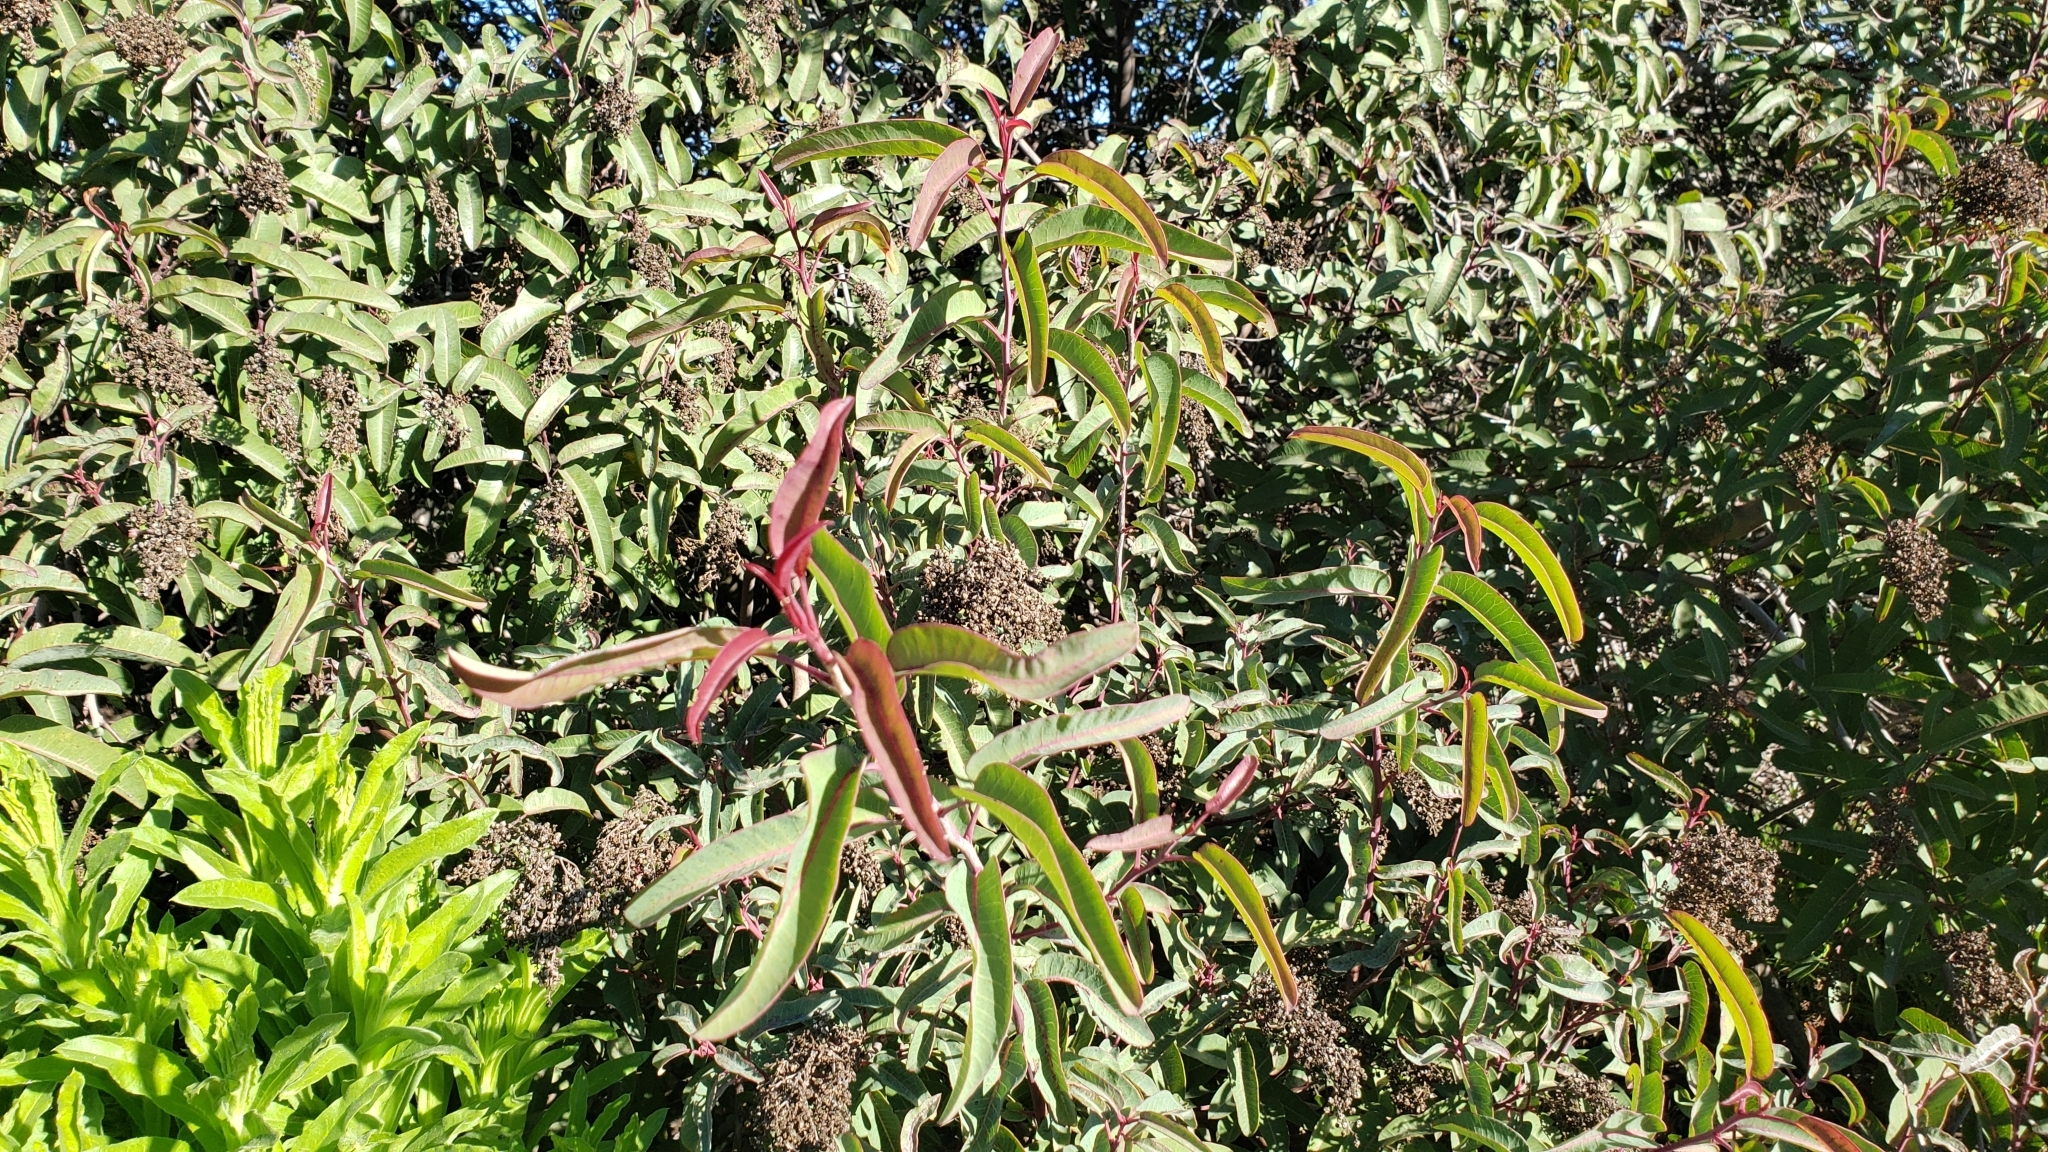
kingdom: Plantae
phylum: Tracheophyta
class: Magnoliopsida
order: Sapindales
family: Anacardiaceae
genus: Malosma
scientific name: Malosma laurina
